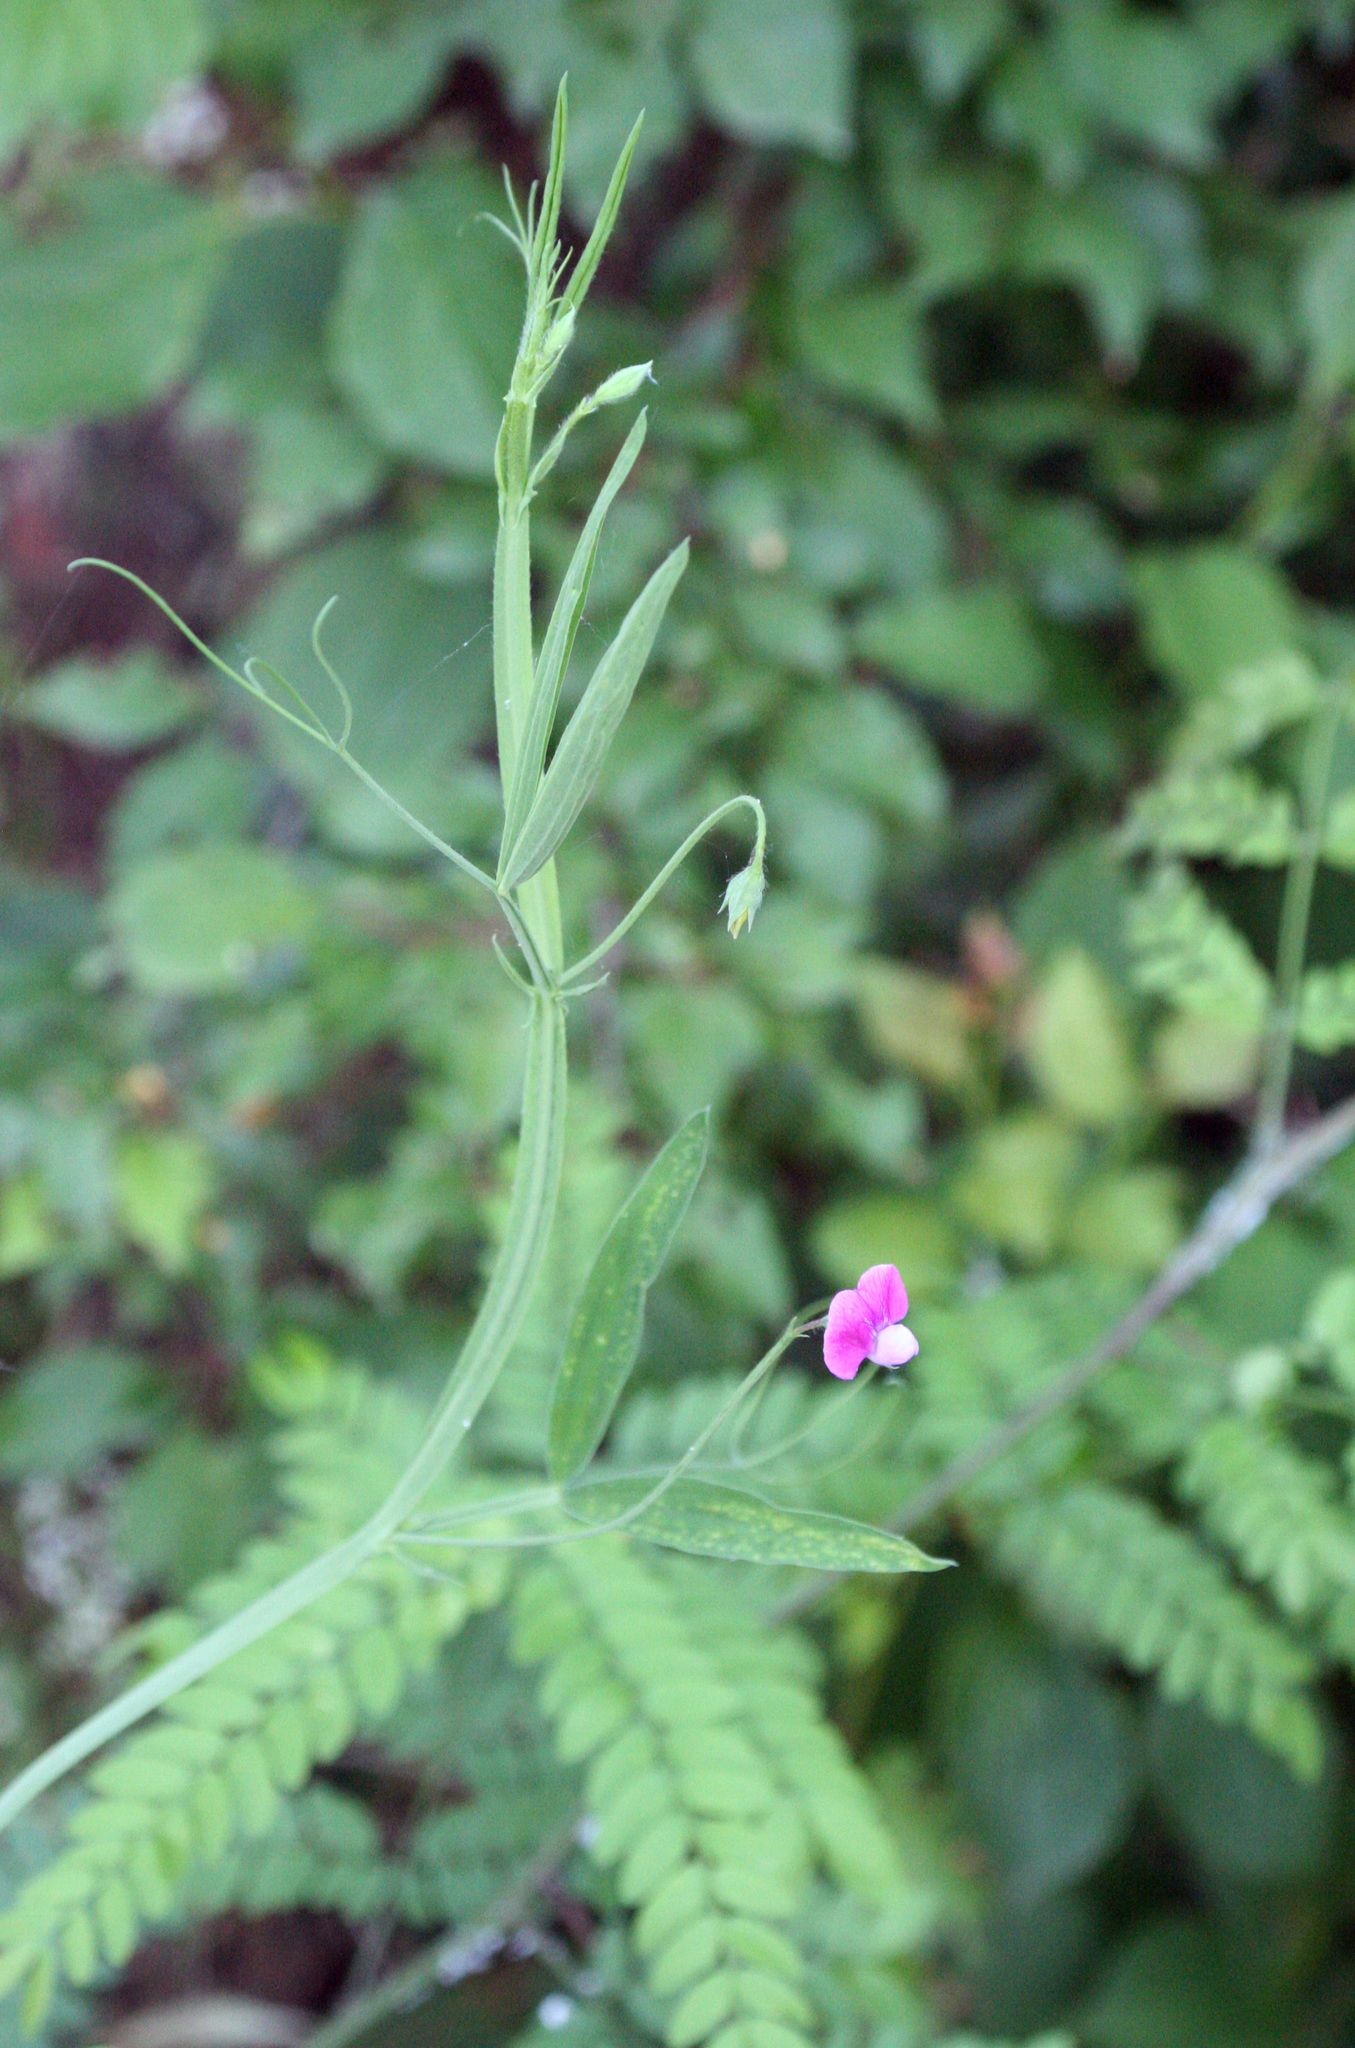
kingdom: Plantae
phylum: Tracheophyta
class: Magnoliopsida
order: Fabales
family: Fabaceae
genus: Lathyrus
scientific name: Lathyrus hirsutus
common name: Hairy vetchling
